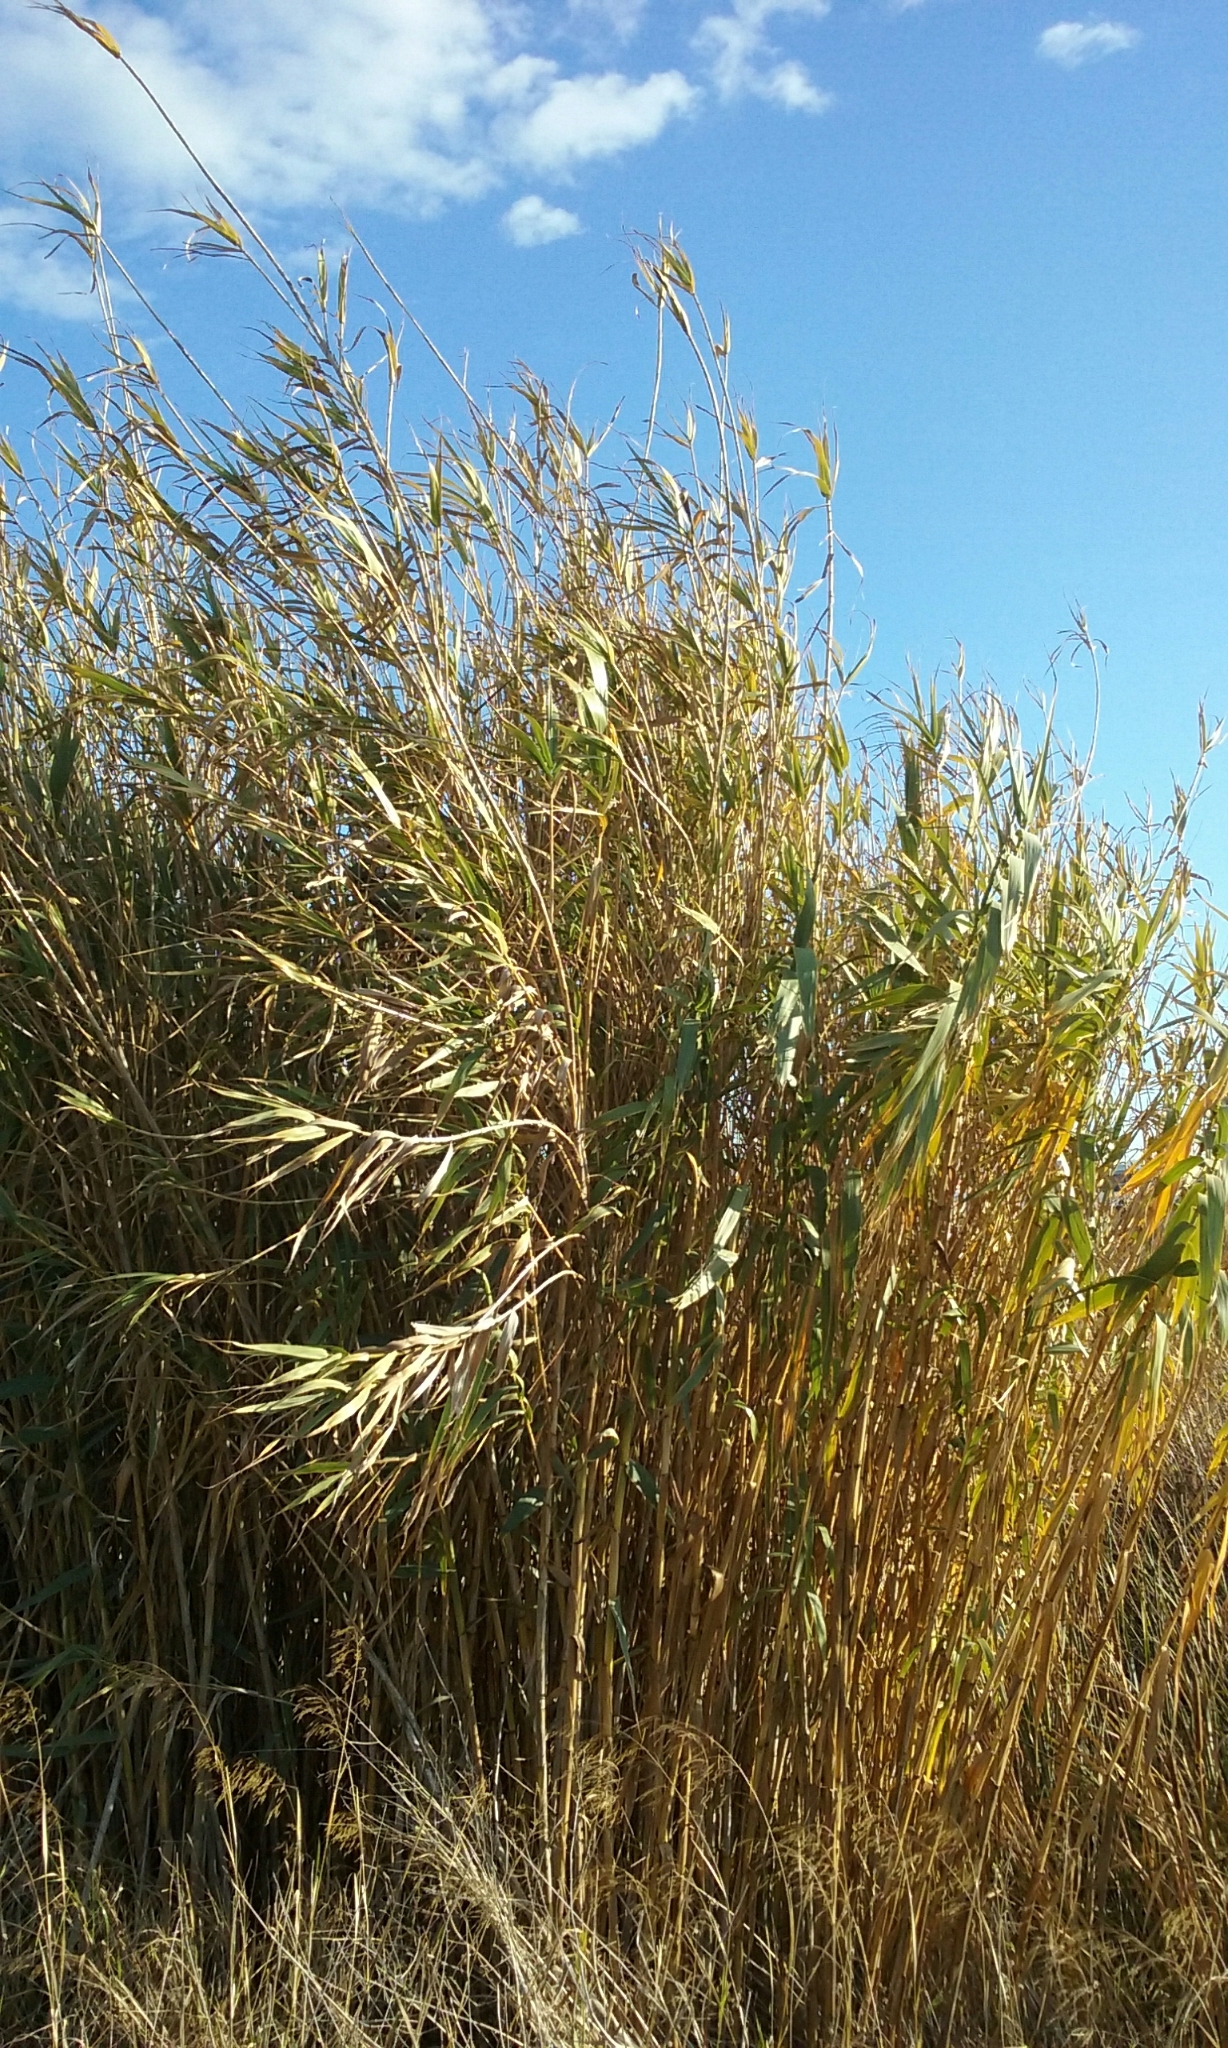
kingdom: Plantae
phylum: Tracheophyta
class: Liliopsida
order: Poales
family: Poaceae
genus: Arundo
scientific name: Arundo donax
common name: Giant reed
